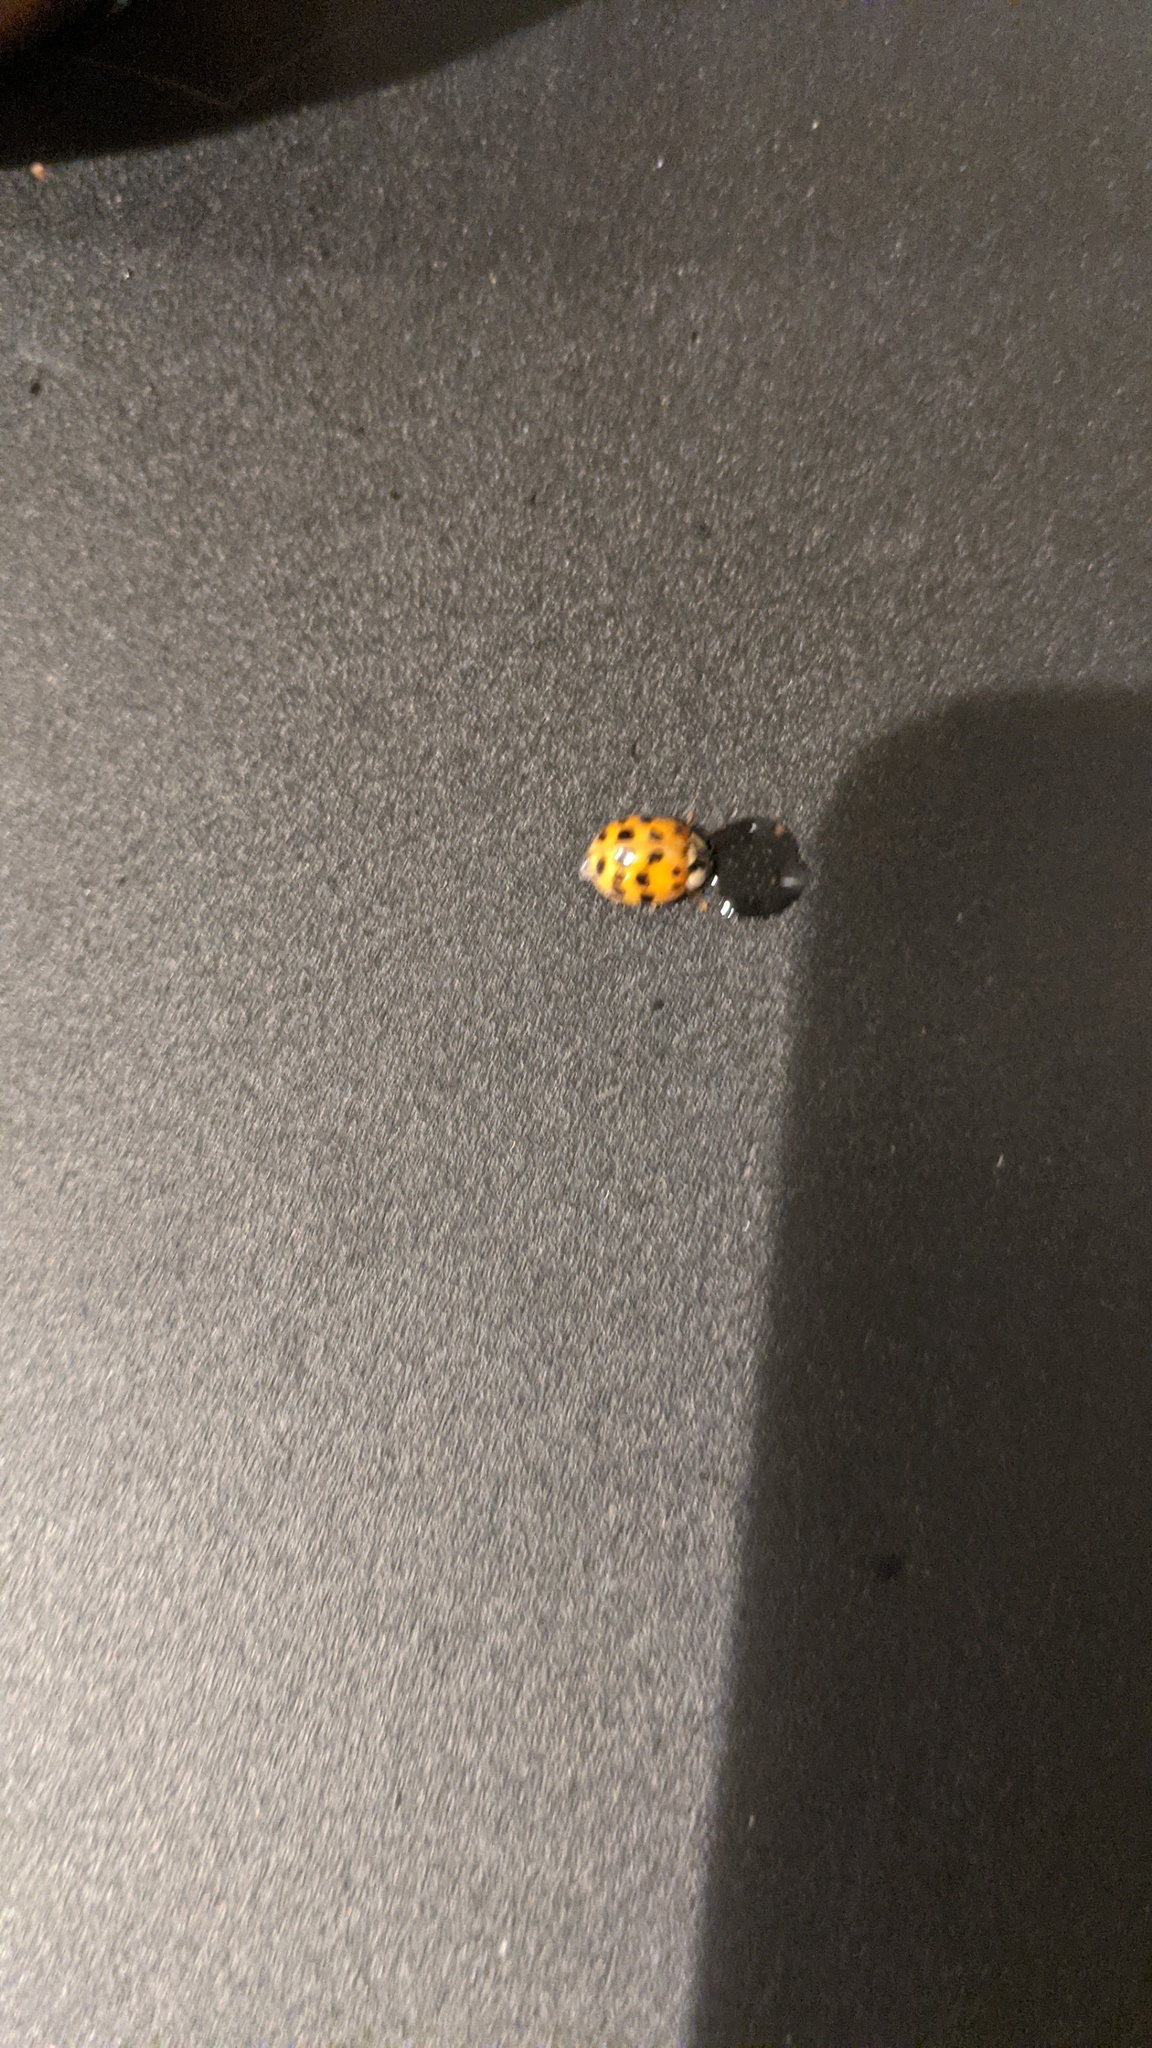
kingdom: Animalia
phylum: Arthropoda
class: Insecta
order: Coleoptera
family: Coccinellidae
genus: Harmonia
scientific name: Harmonia axyridis
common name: Harlequin ladybird
